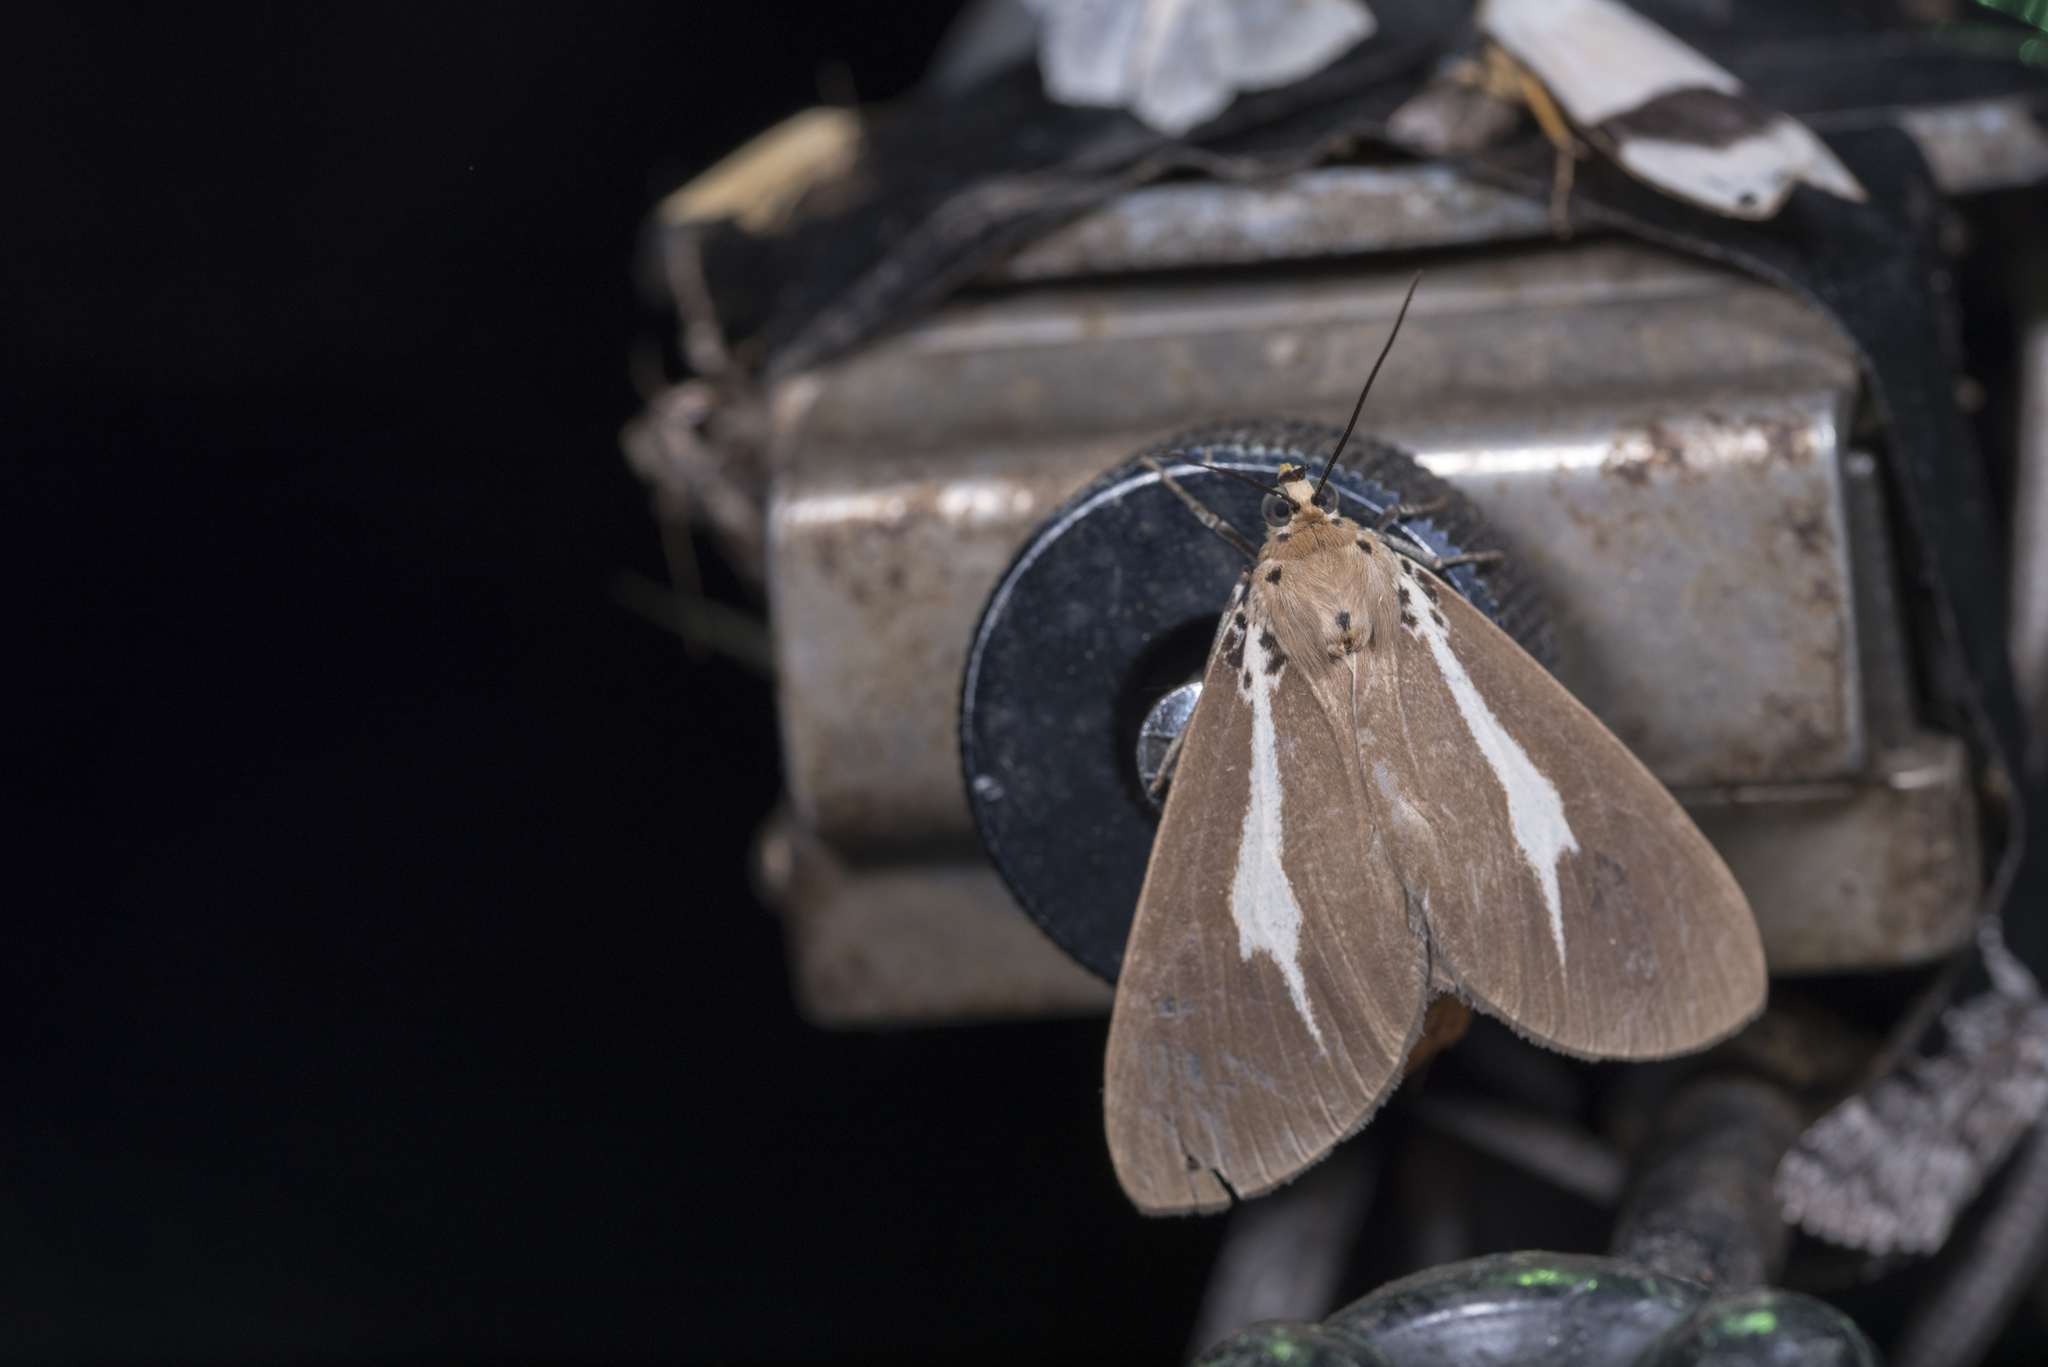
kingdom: Animalia
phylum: Arthropoda
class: Insecta
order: Lepidoptera
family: Erebidae
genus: Asota
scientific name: Asota heliconia
